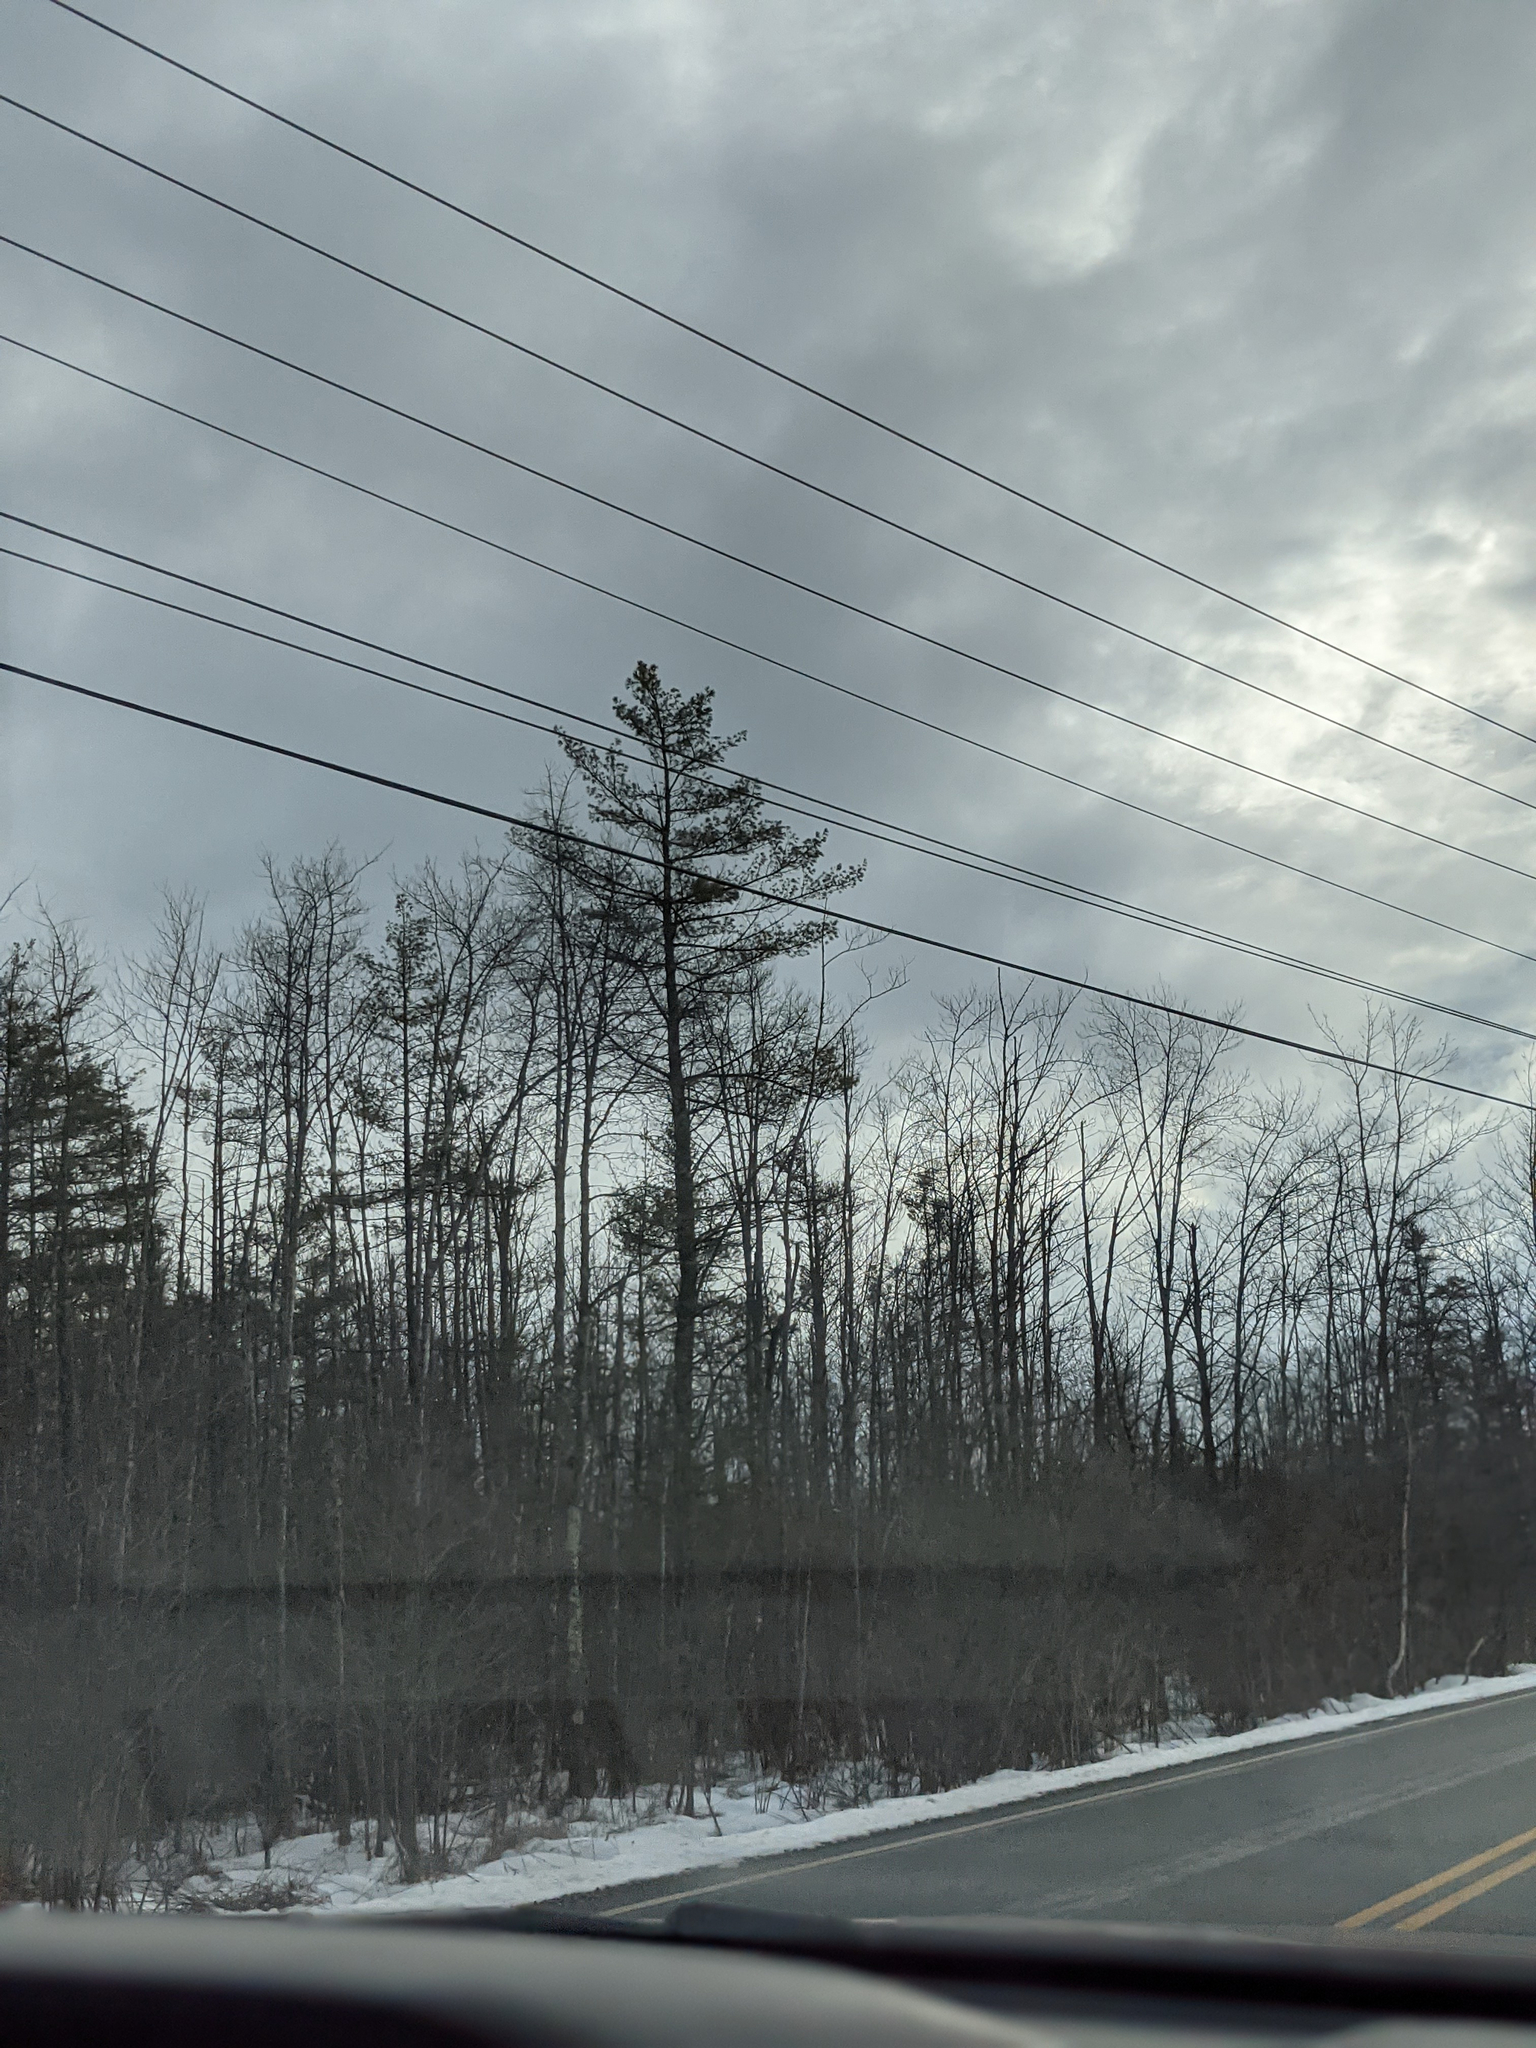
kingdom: Plantae
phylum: Tracheophyta
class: Pinopsida
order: Pinales
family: Pinaceae
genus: Pinus
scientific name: Pinus strobus
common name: Weymouth pine
